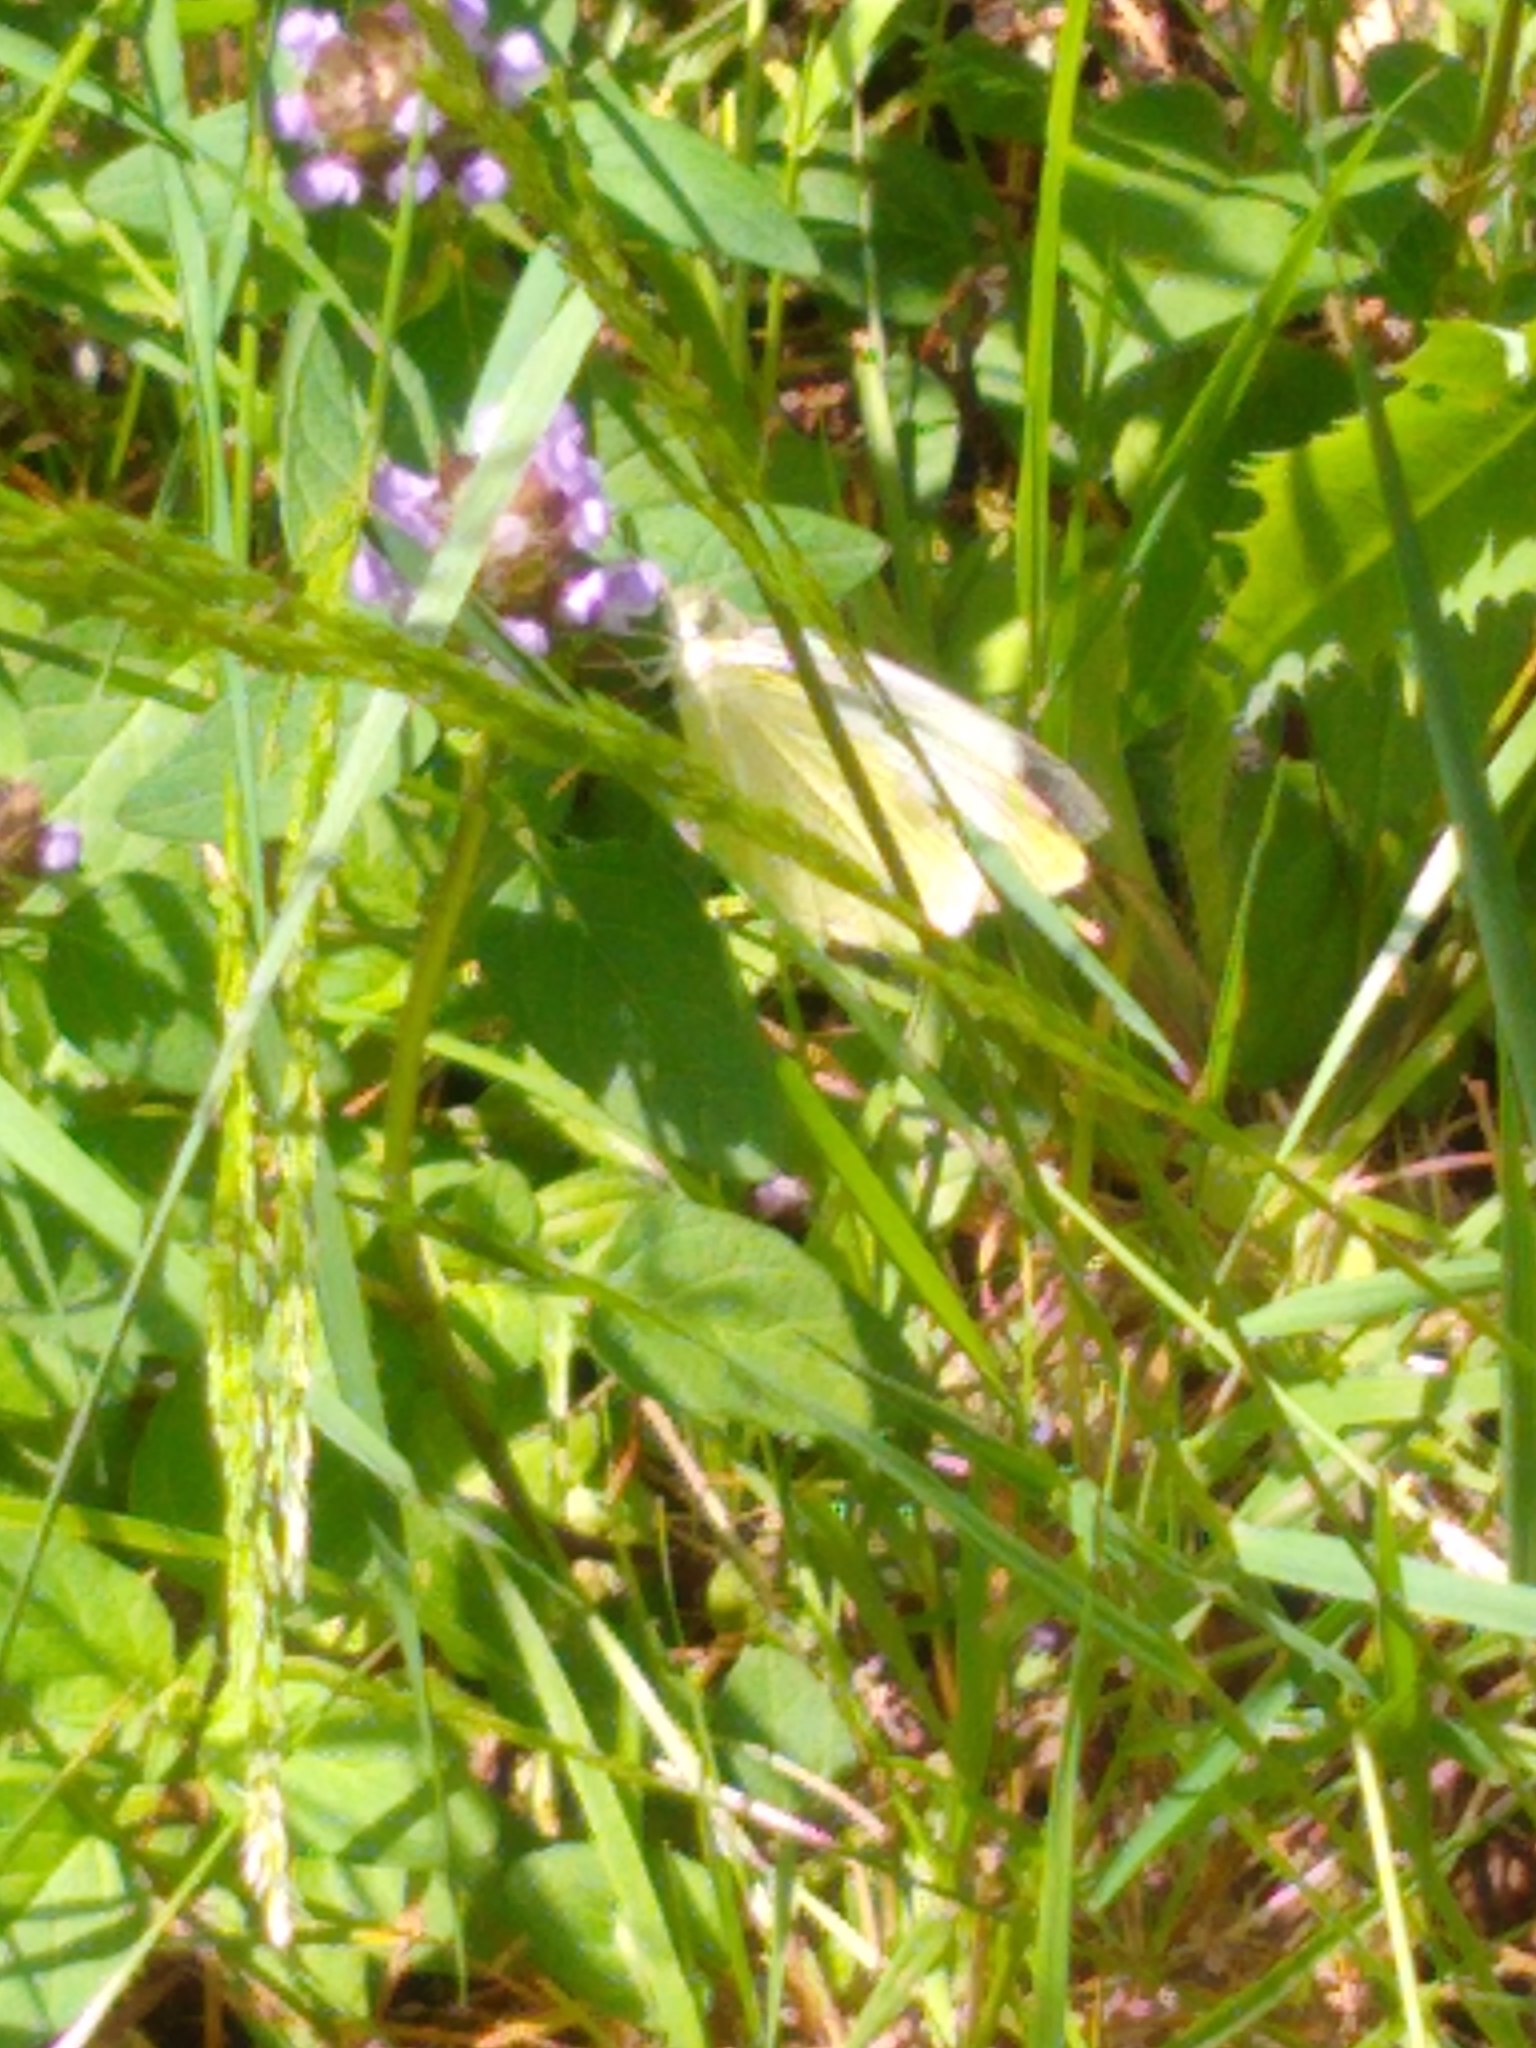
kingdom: Animalia
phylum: Arthropoda
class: Insecta
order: Lepidoptera
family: Pieridae
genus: Pieris
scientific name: Pieris rapae
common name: Small white
